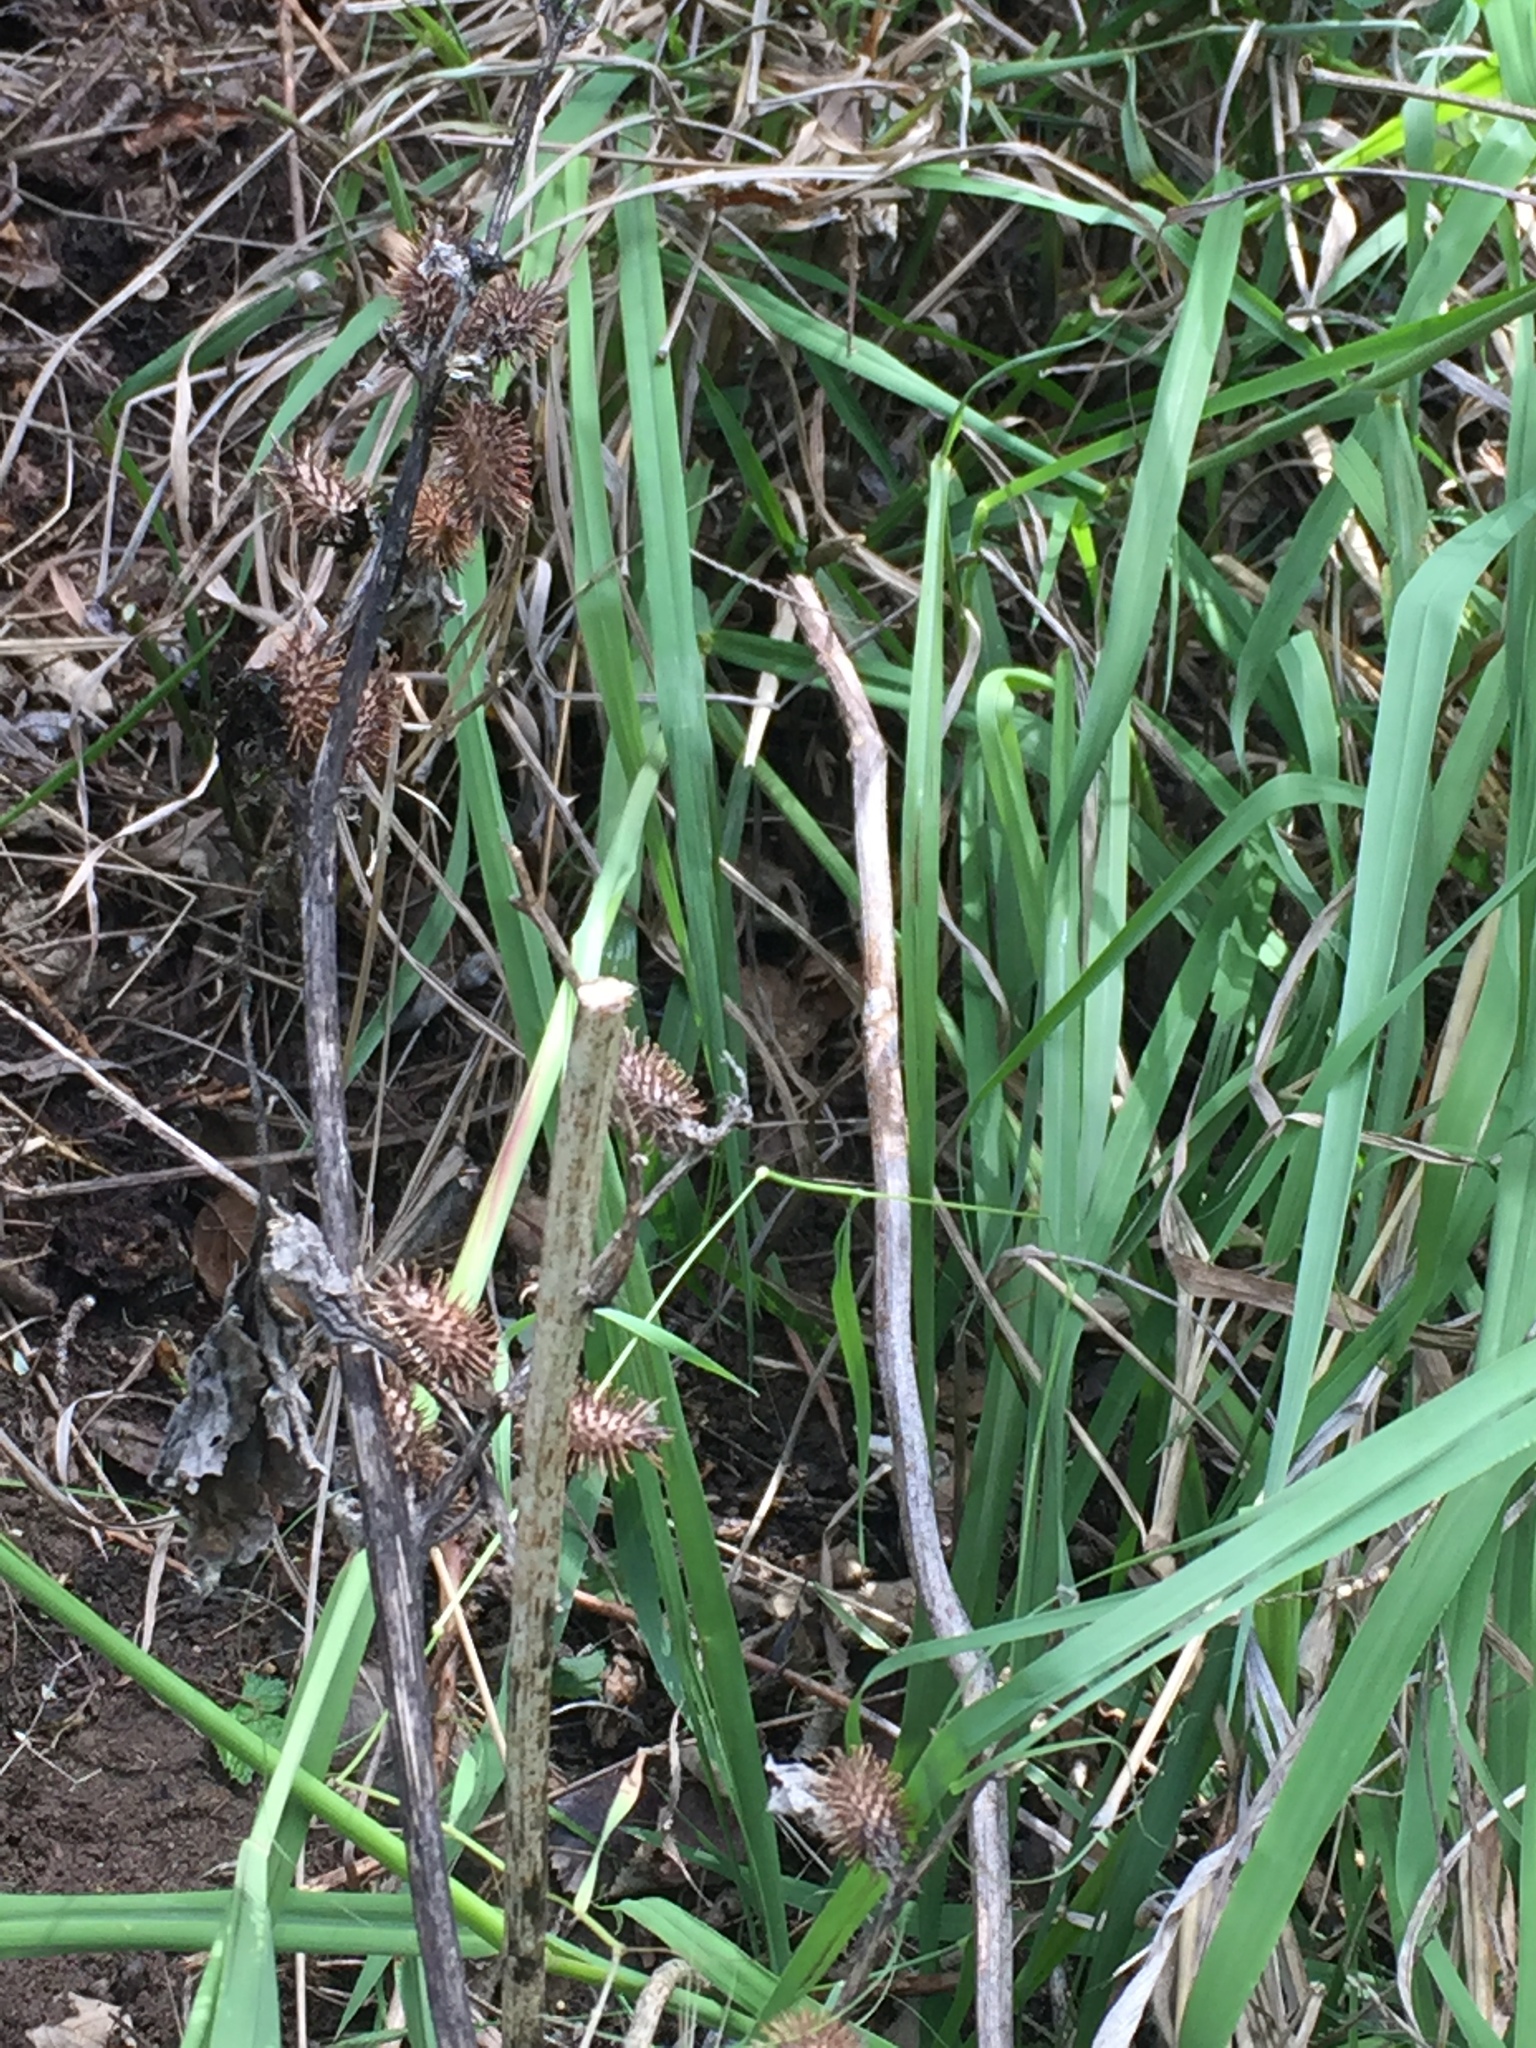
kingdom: Plantae
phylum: Tracheophyta
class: Magnoliopsida
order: Asterales
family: Asteraceae
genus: Xanthium
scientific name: Xanthium strumarium
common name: Rough cocklebur
